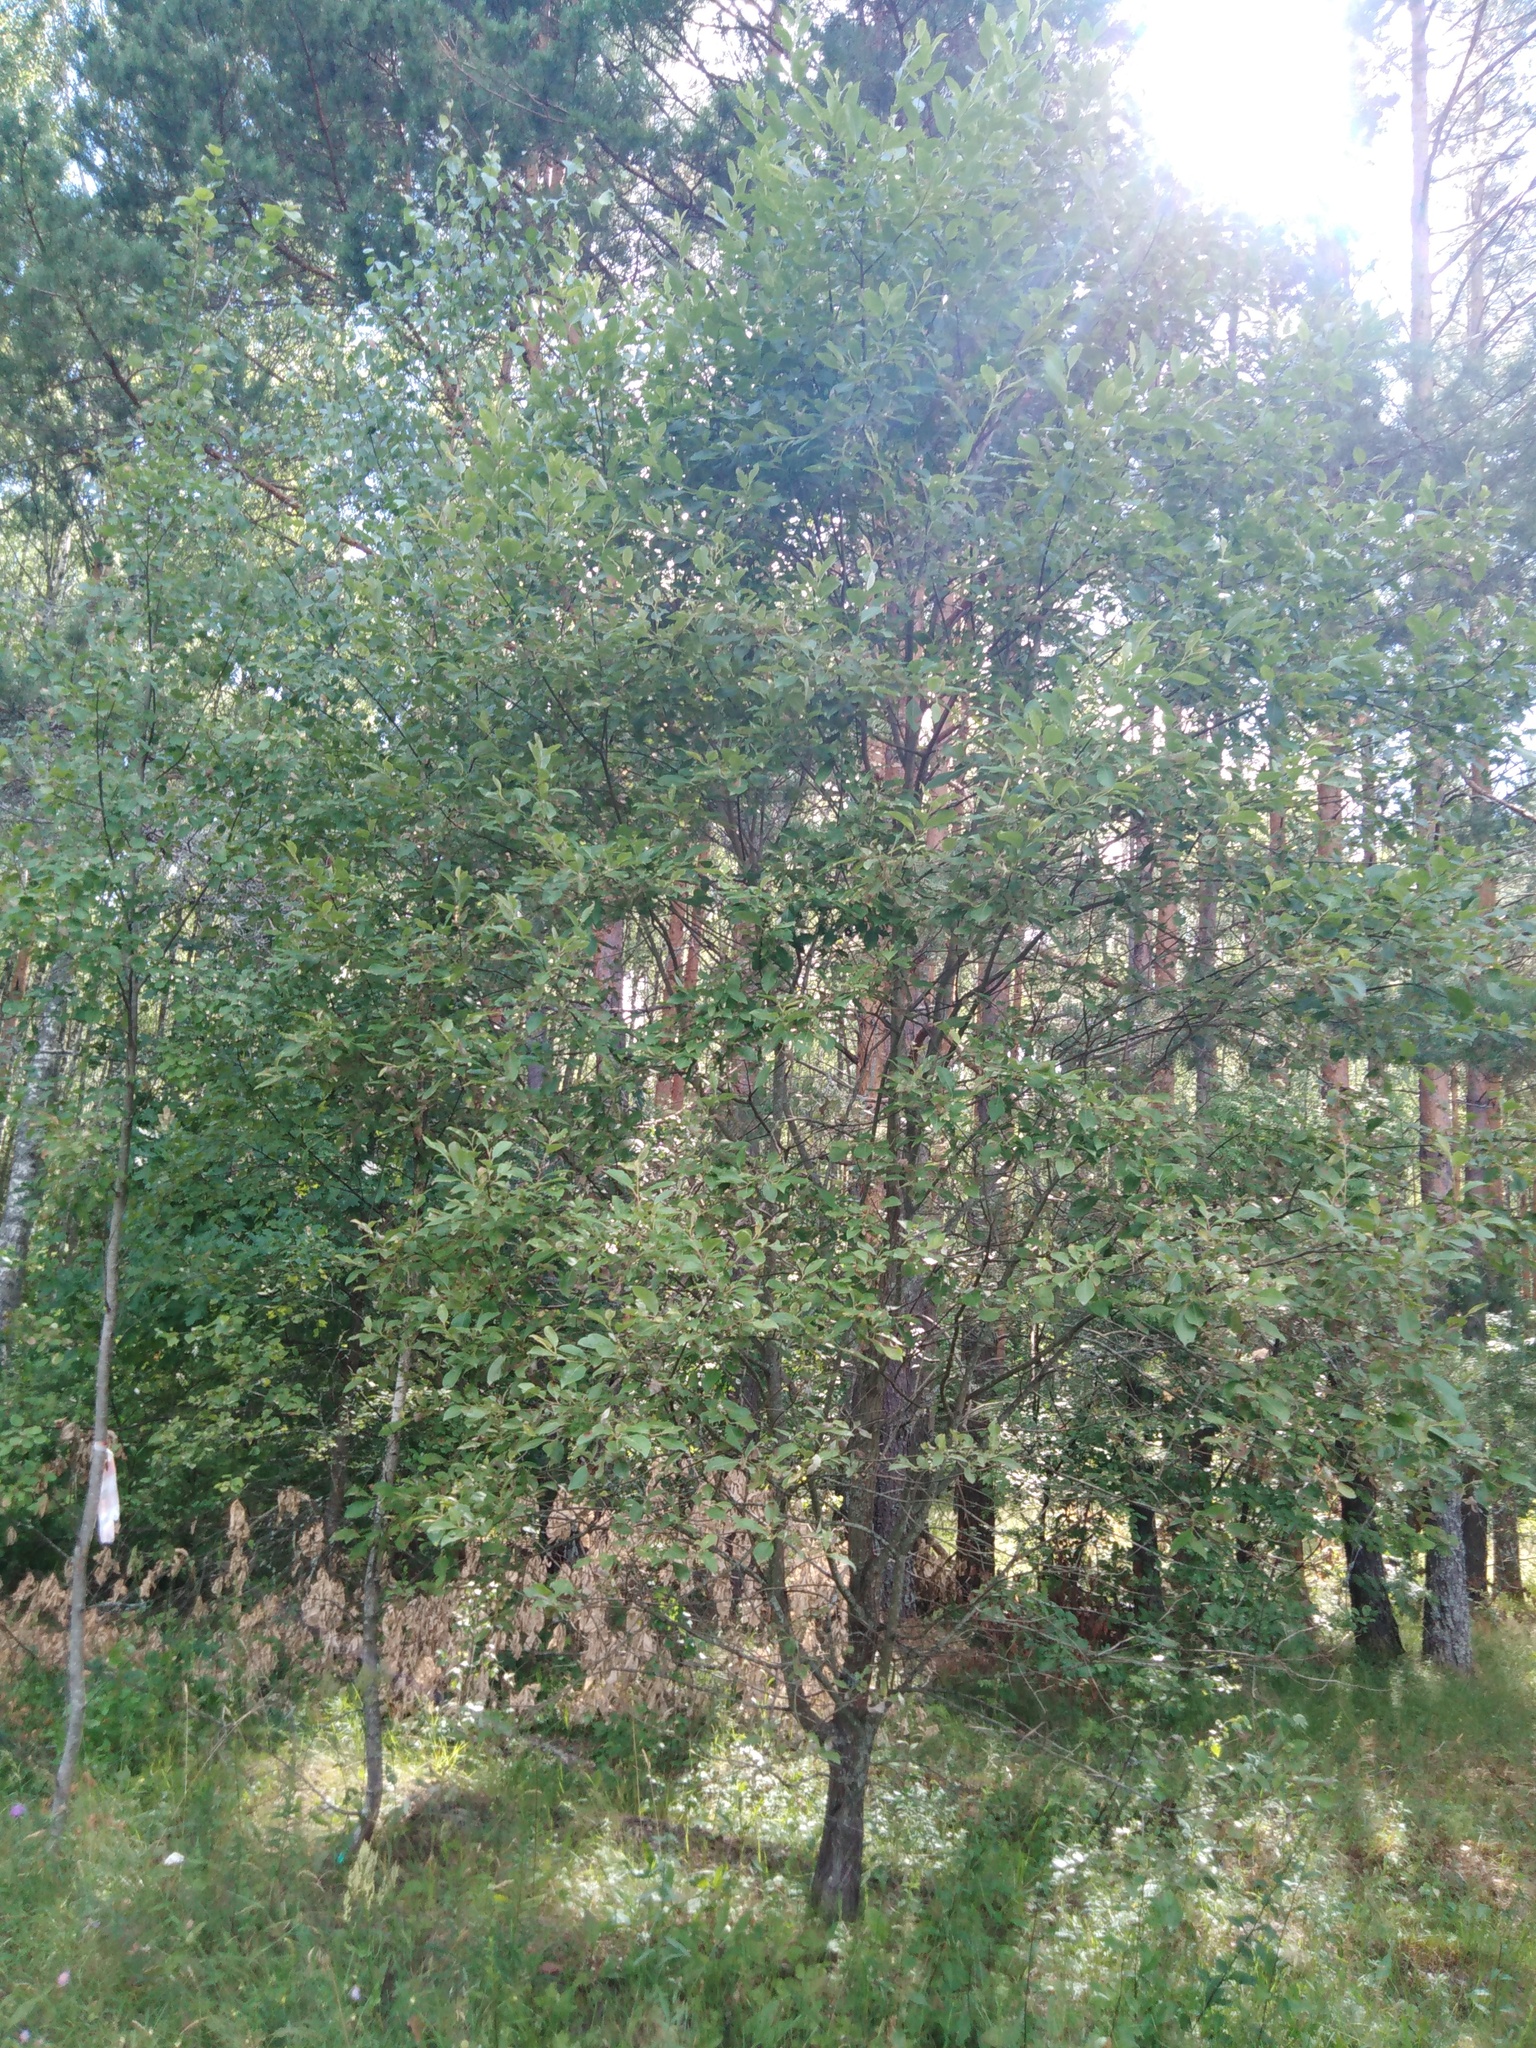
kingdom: Plantae
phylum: Tracheophyta
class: Magnoliopsida
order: Malpighiales
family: Salicaceae
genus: Salix
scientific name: Salix caprea
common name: Goat willow
